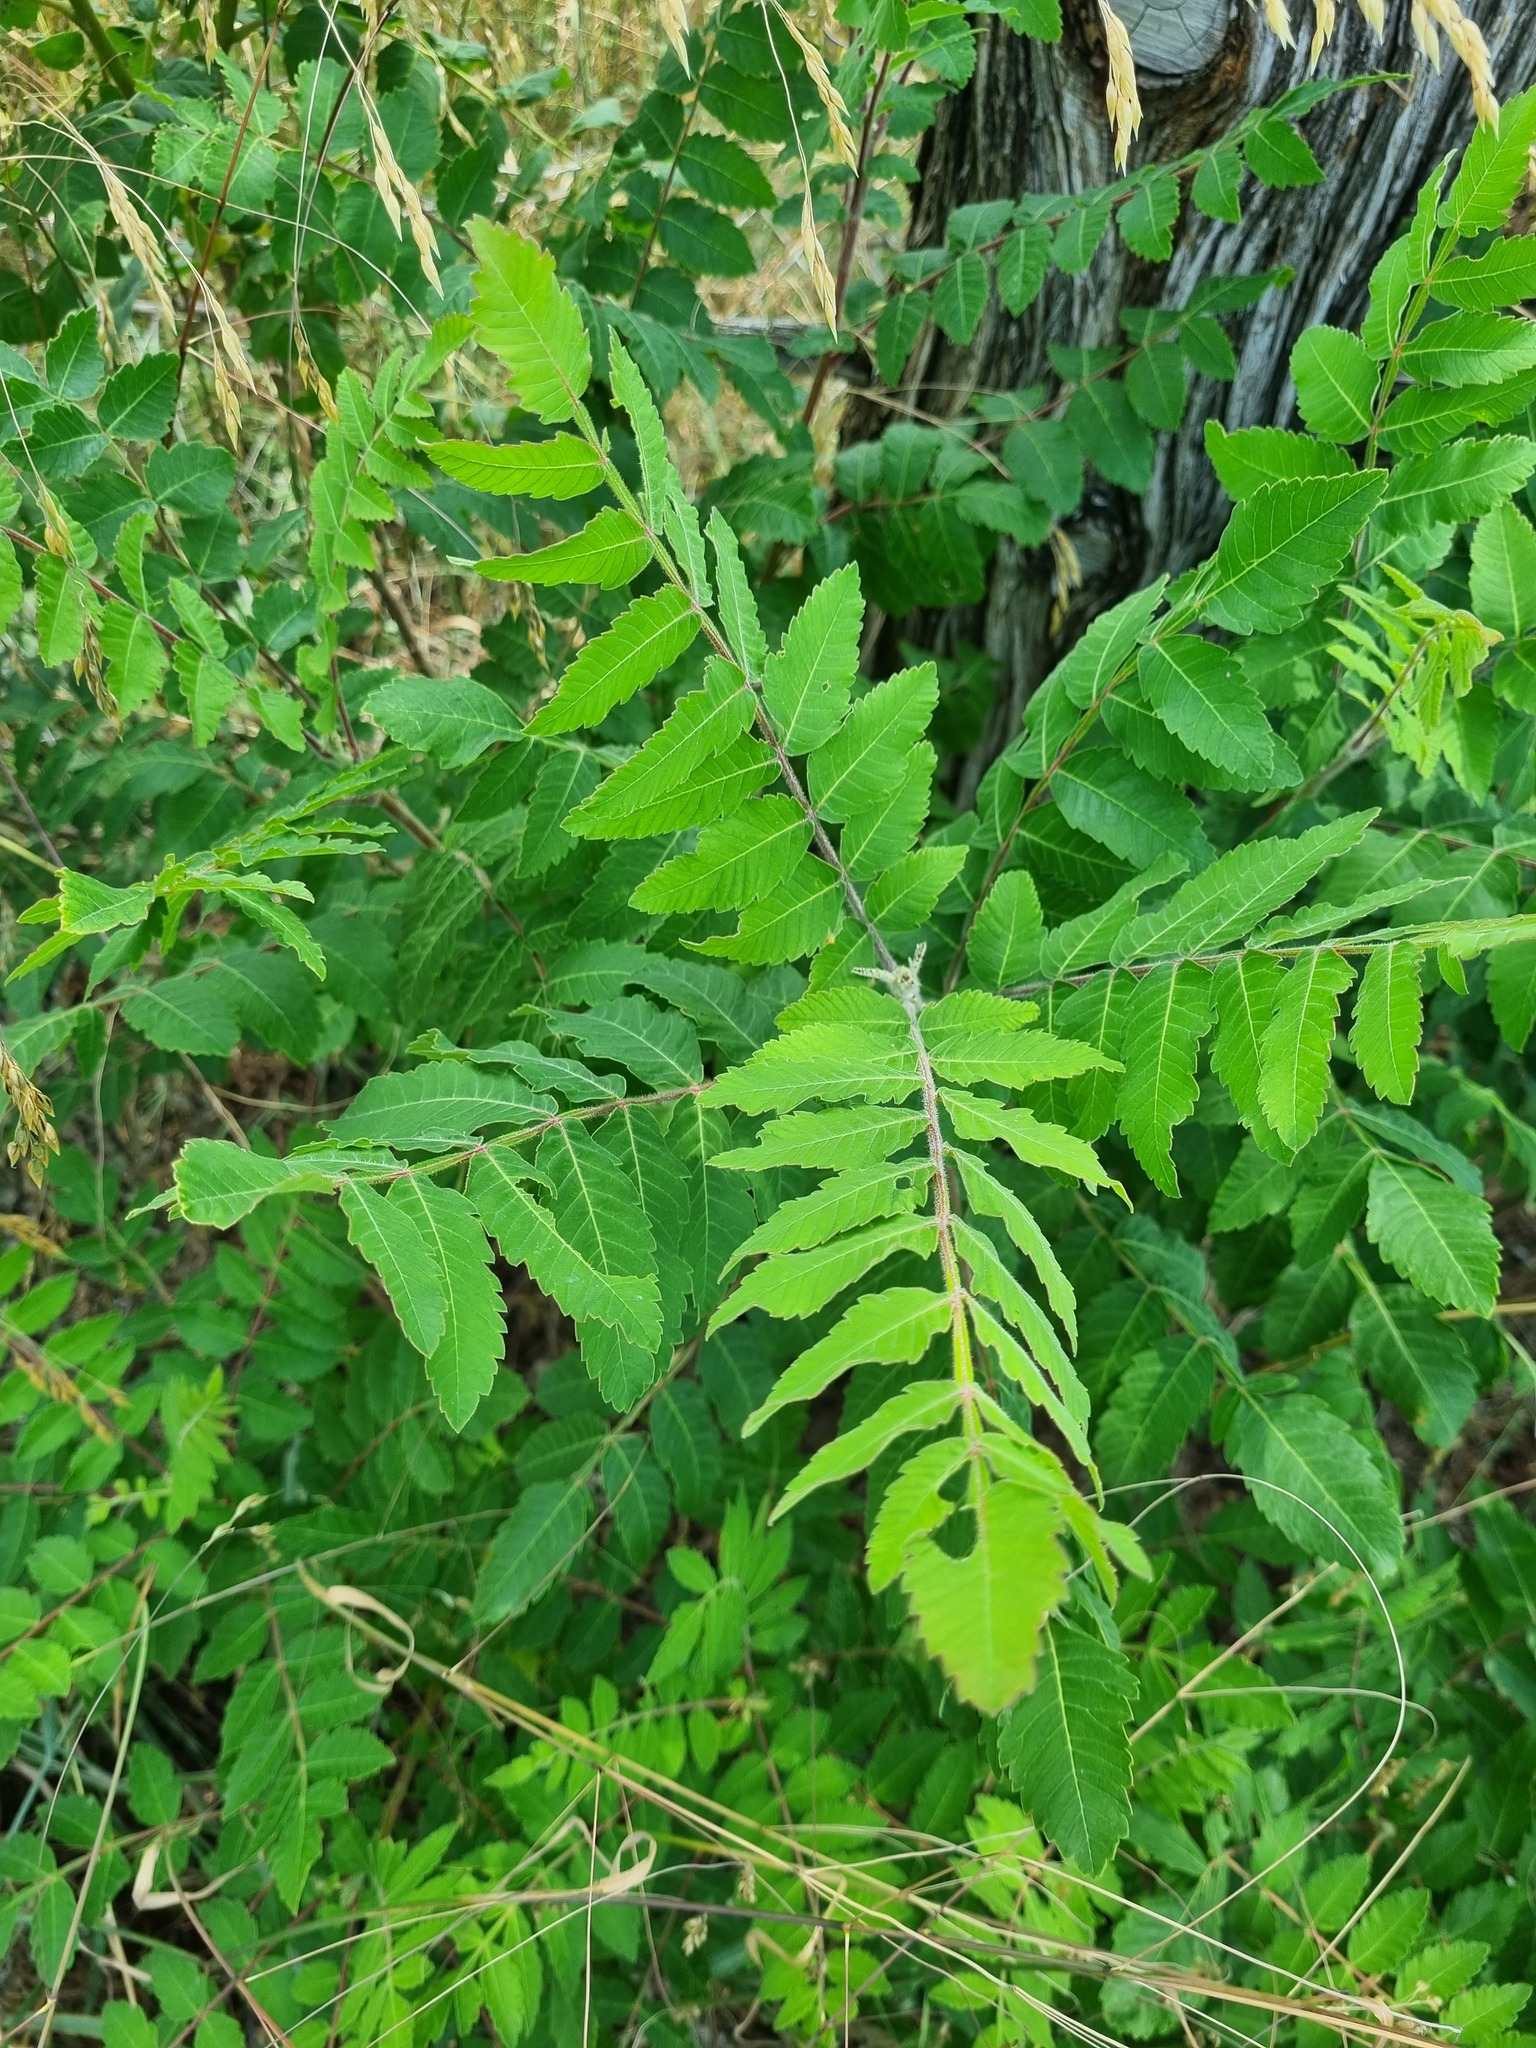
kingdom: Plantae
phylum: Tracheophyta
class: Magnoliopsida
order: Sapindales
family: Anacardiaceae
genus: Rhus
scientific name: Rhus coriaria
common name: Tanner's sumach
